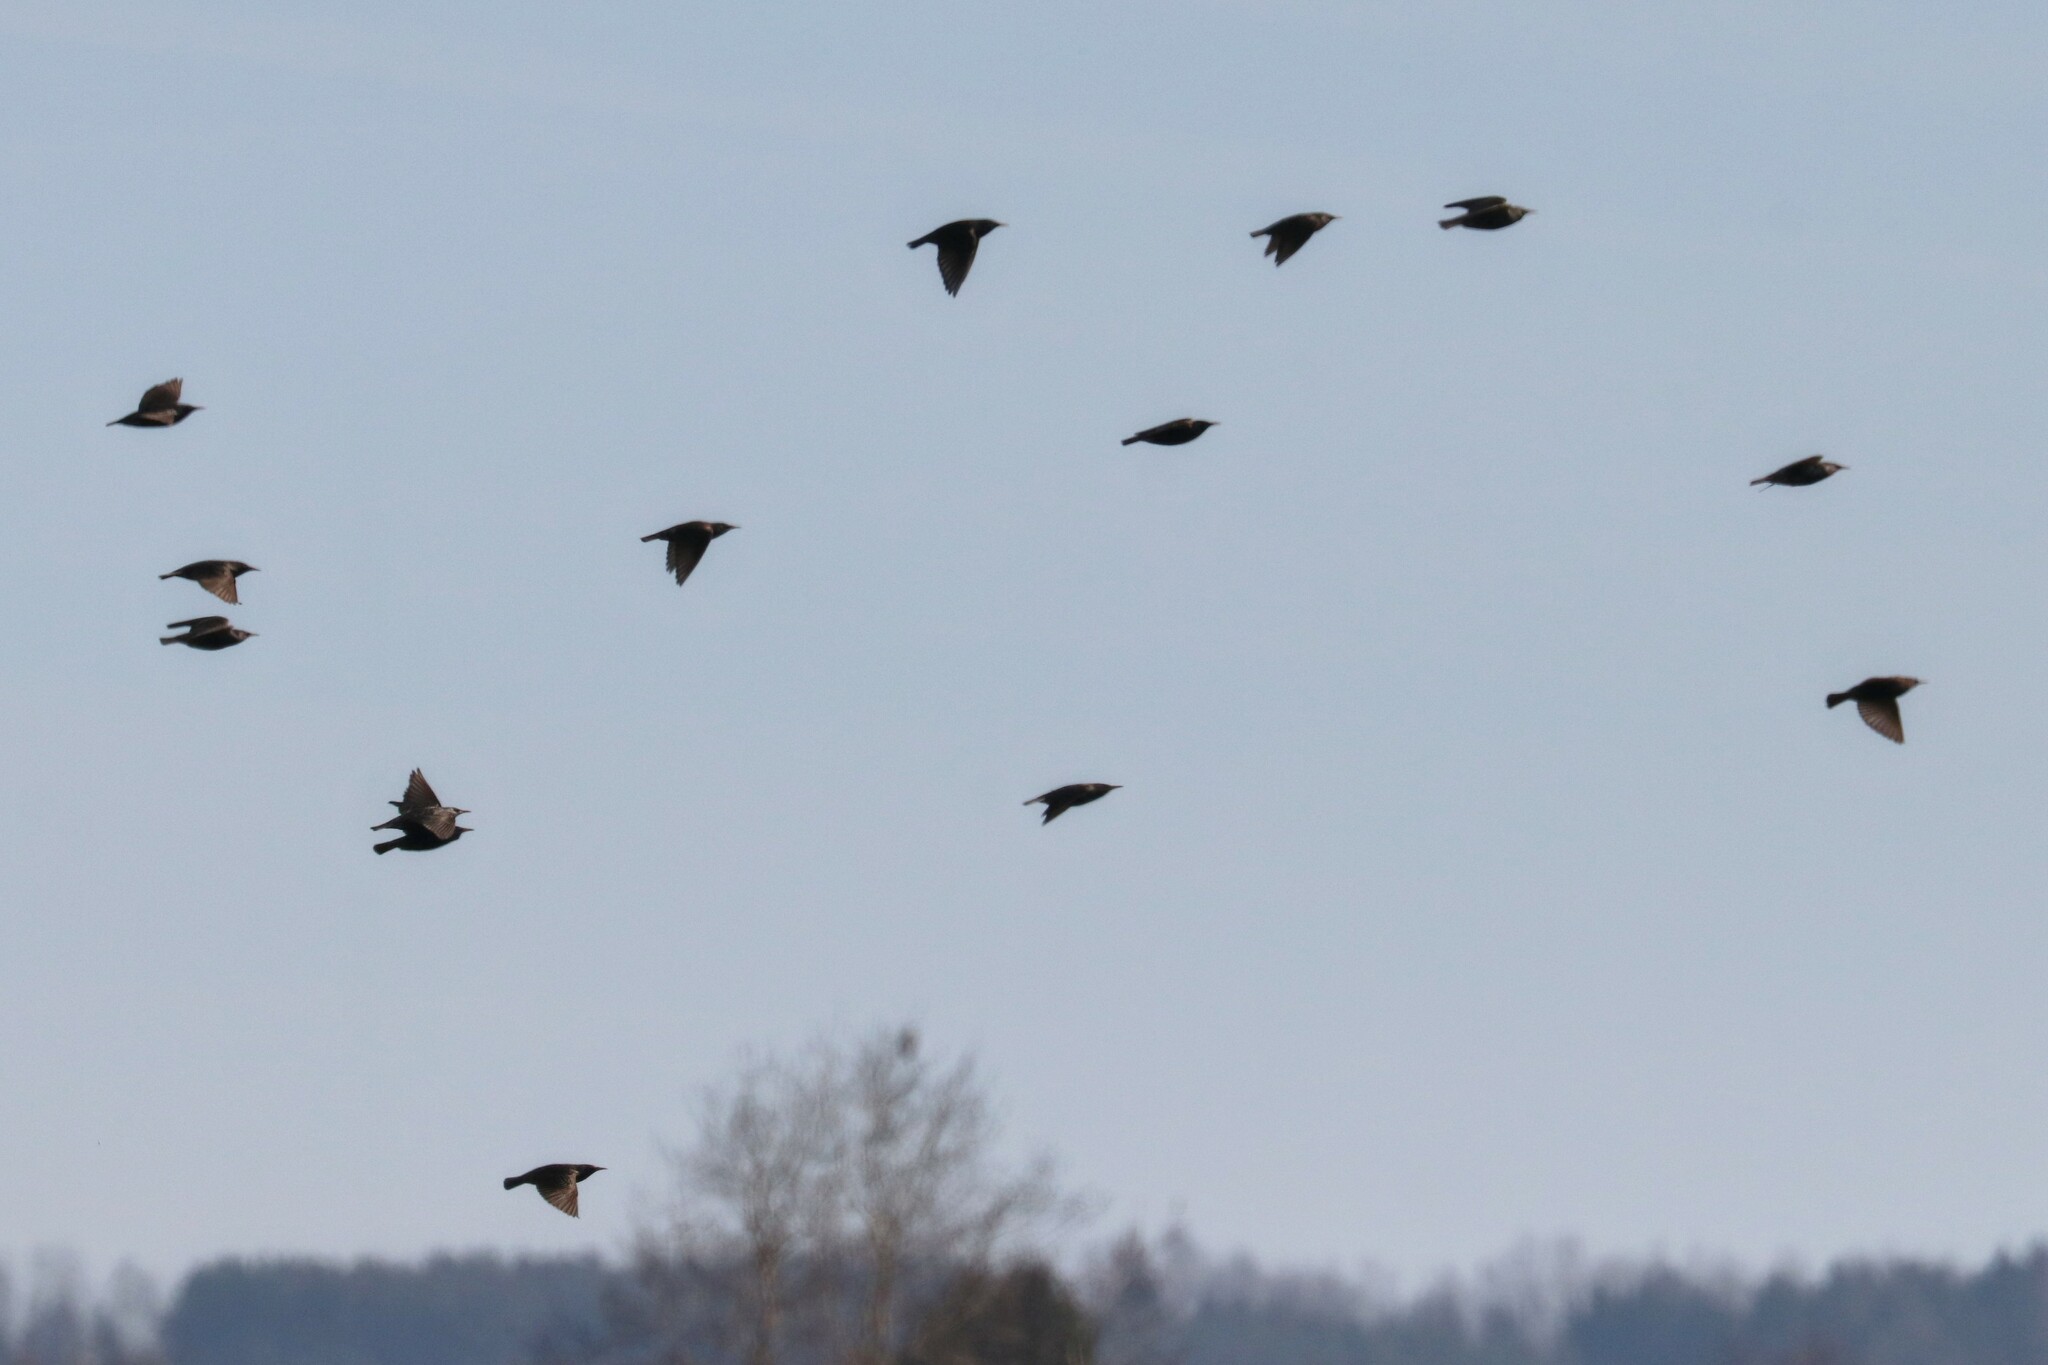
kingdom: Animalia
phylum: Chordata
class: Aves
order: Passeriformes
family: Sturnidae
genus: Sturnus
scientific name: Sturnus vulgaris
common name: Common starling
